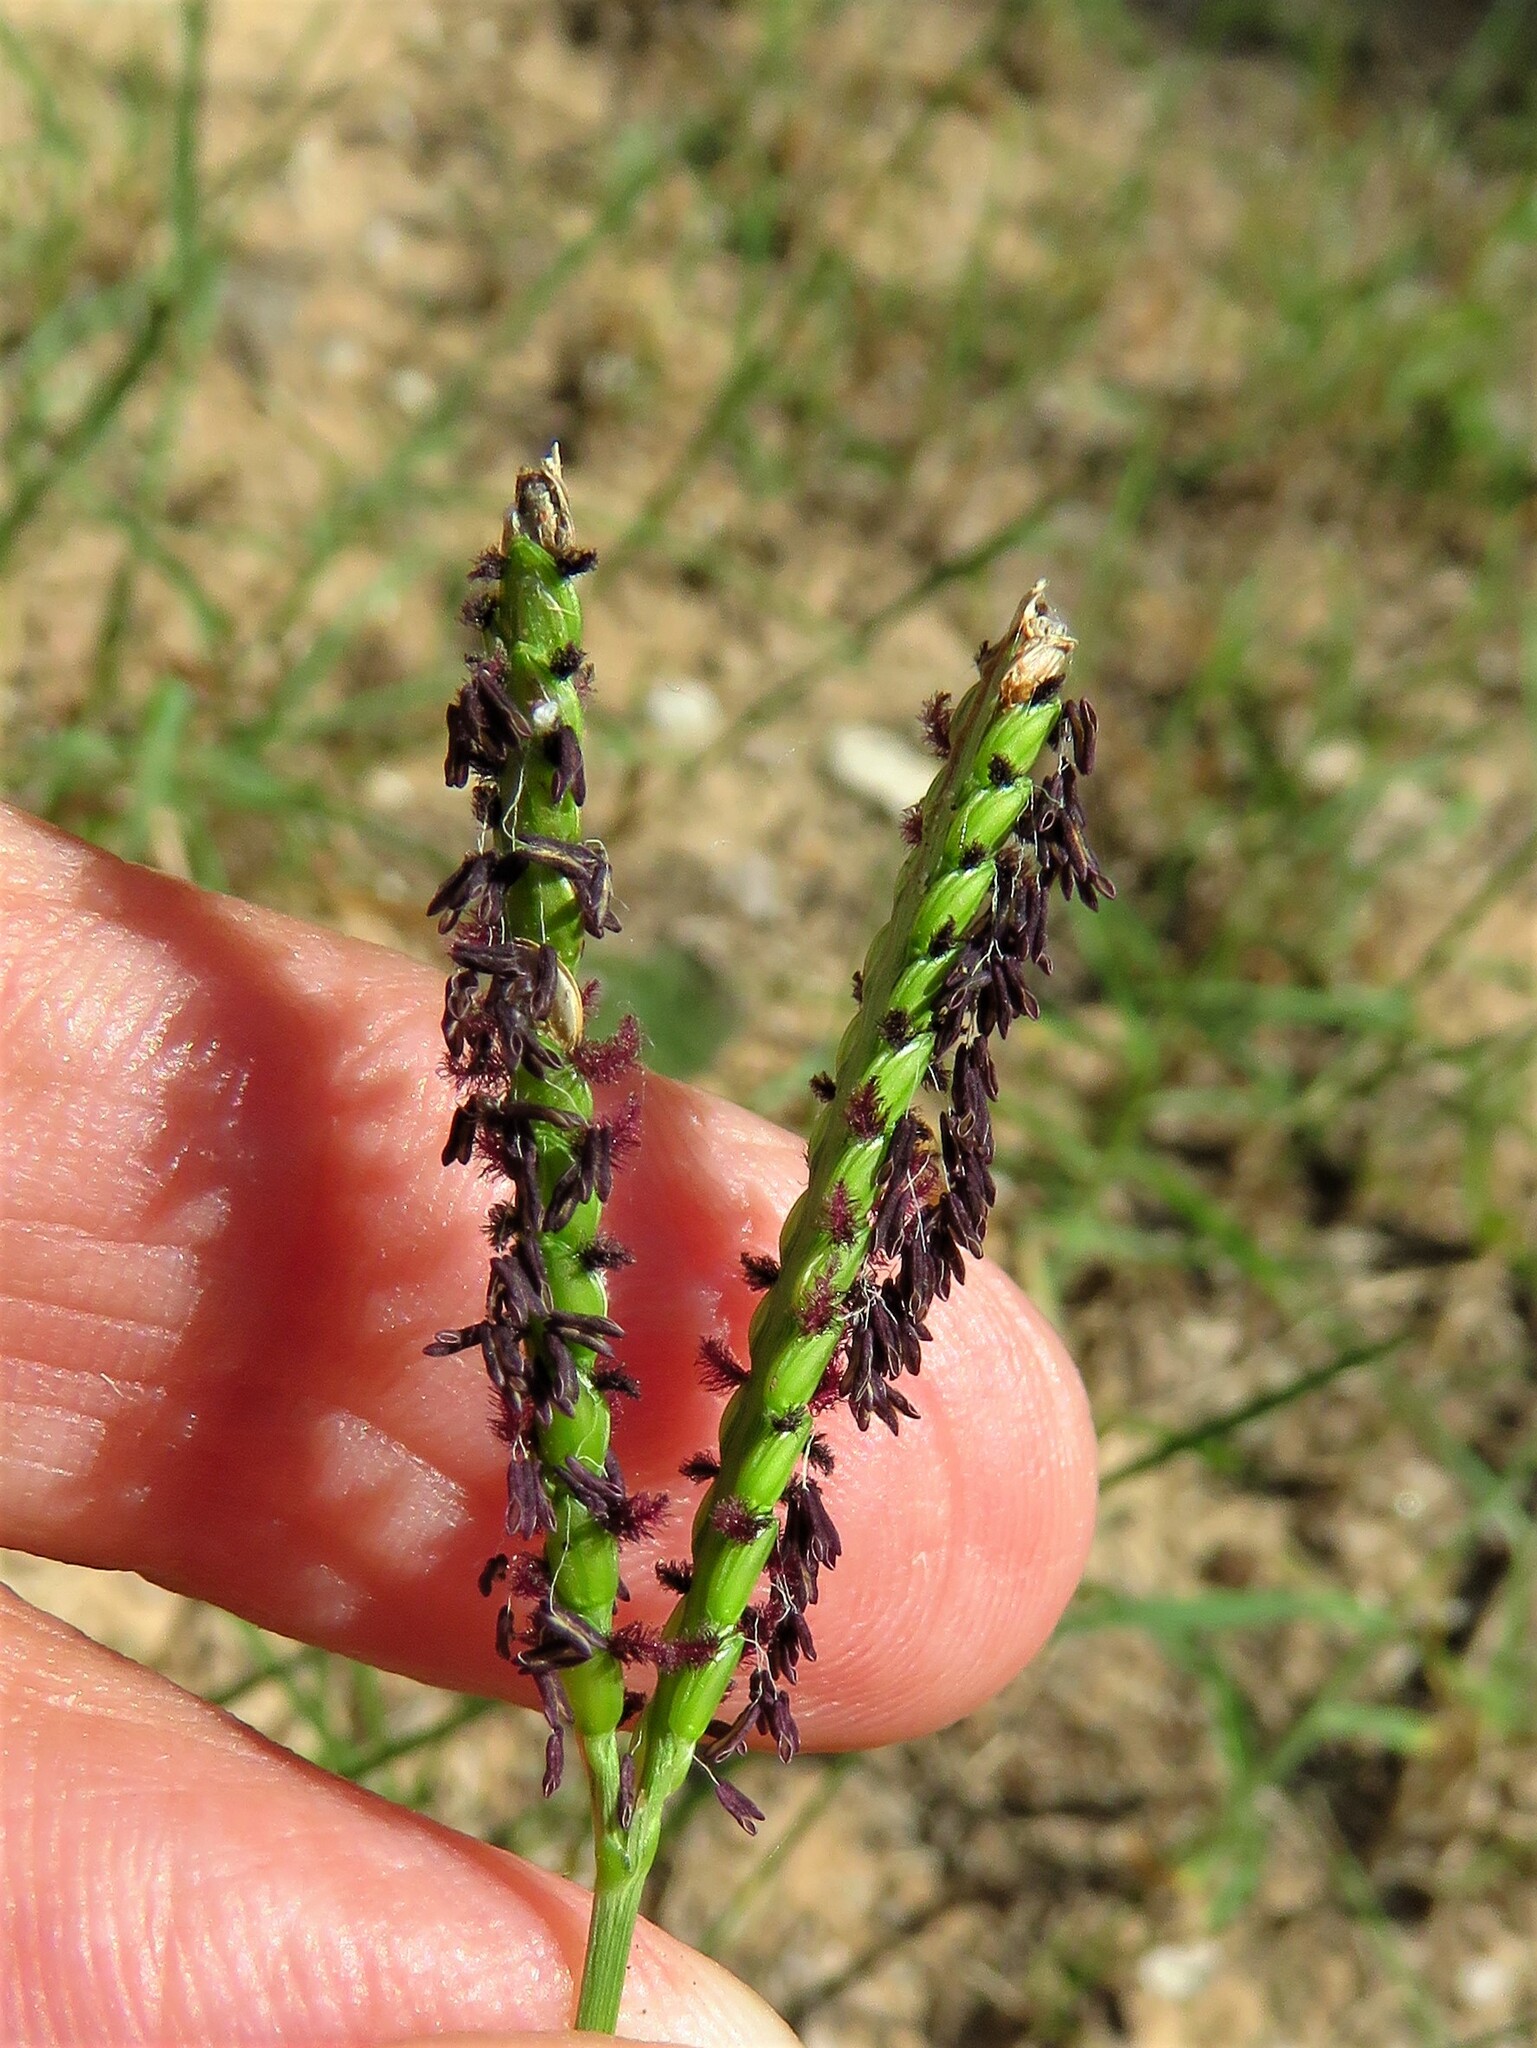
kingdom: Plantae
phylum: Tracheophyta
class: Liliopsida
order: Poales
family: Poaceae
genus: Paspalum
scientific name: Paspalum notatum
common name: Bahiagrass
